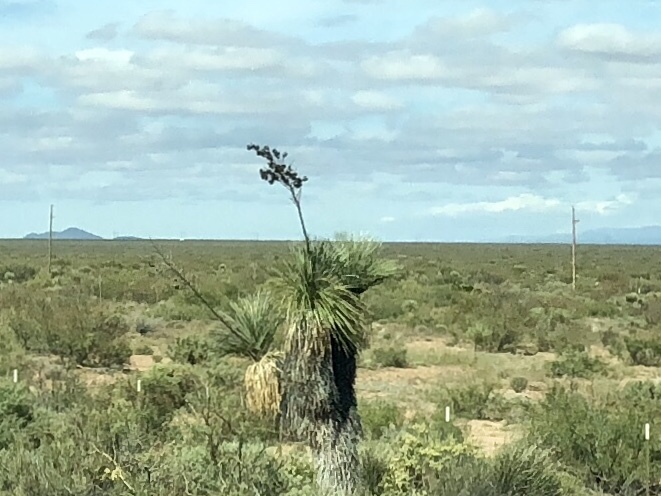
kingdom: Plantae
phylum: Tracheophyta
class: Liliopsida
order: Asparagales
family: Asparagaceae
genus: Yucca
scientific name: Yucca elata
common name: Palmella
